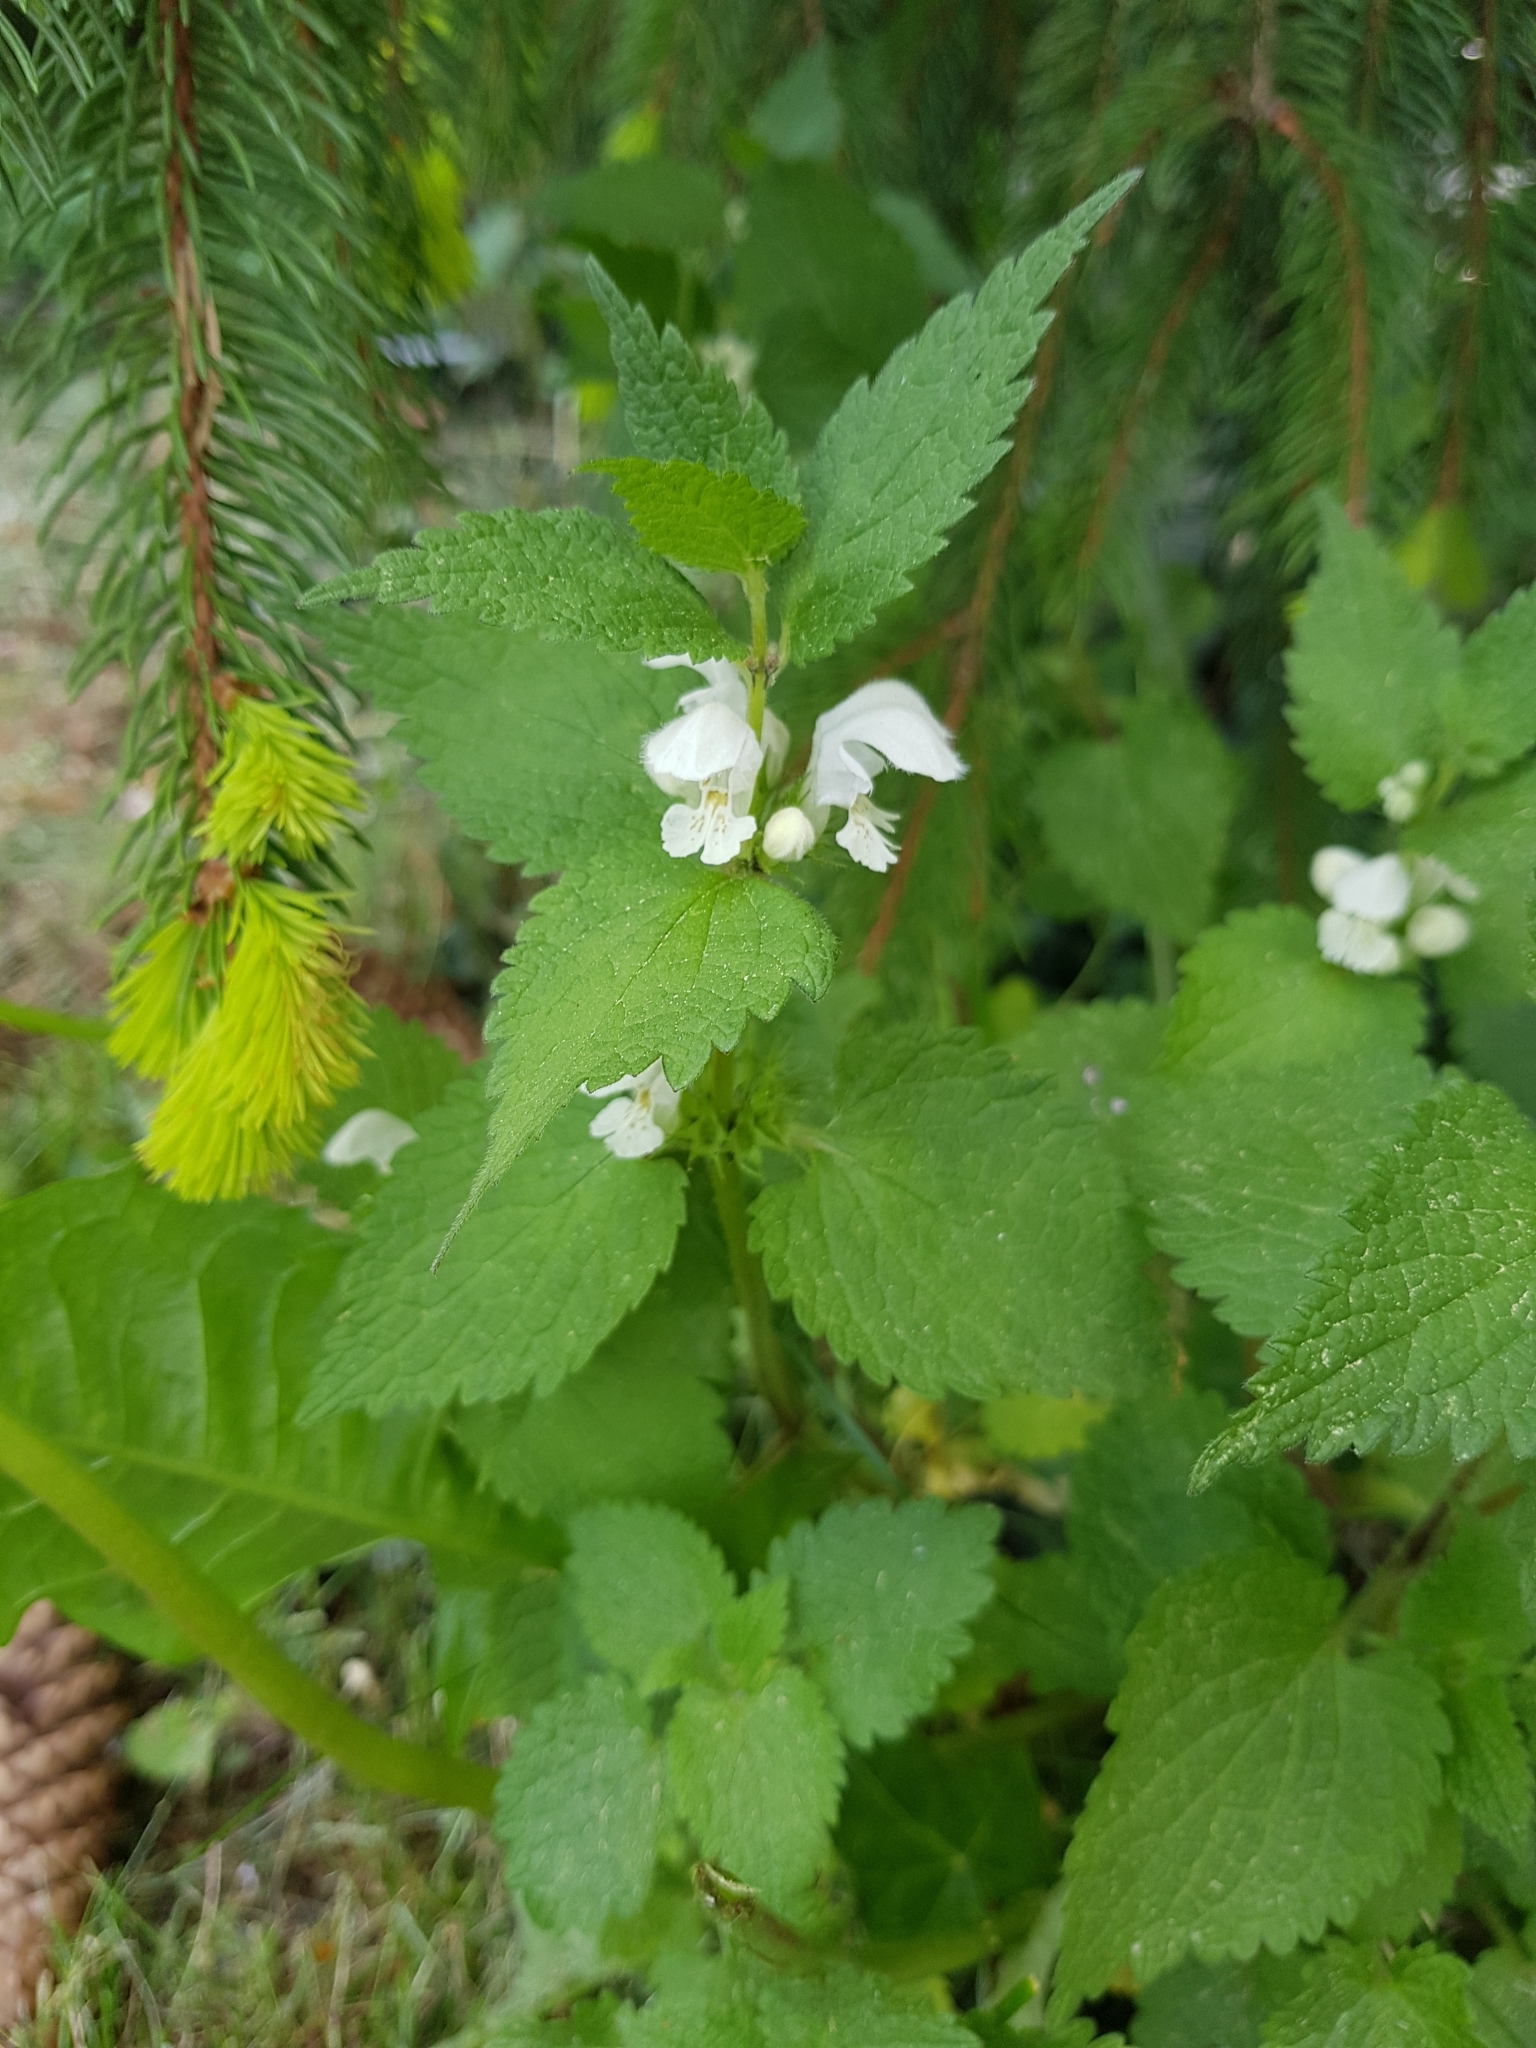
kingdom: Plantae
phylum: Tracheophyta
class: Magnoliopsida
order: Lamiales
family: Lamiaceae
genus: Lamium
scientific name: Lamium album
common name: White dead-nettle
